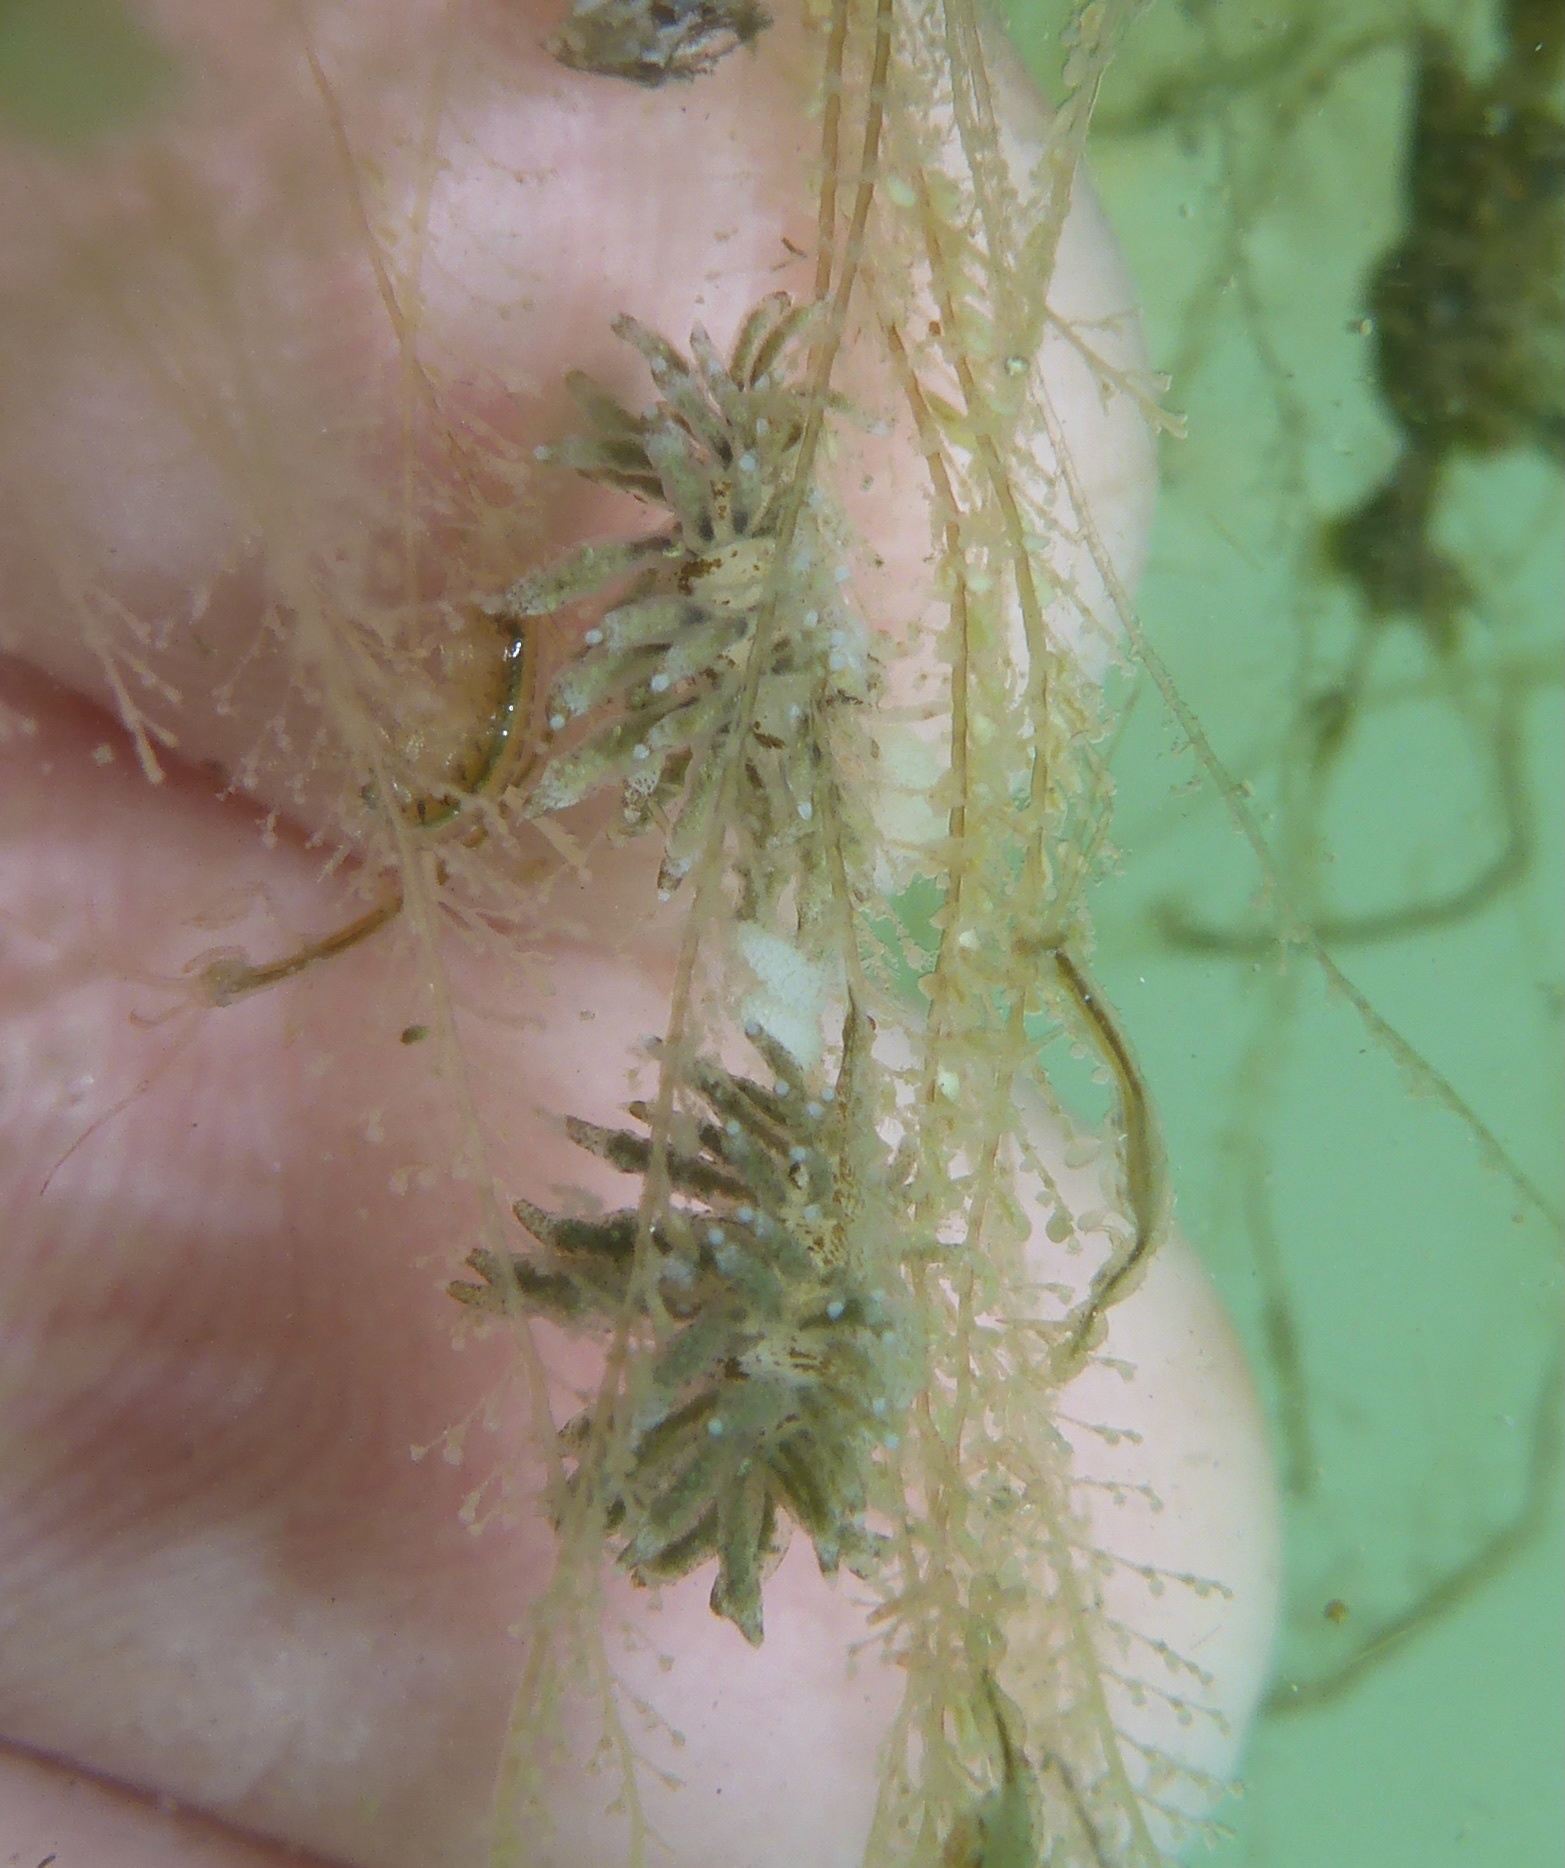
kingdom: Animalia
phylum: Mollusca
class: Gastropoda
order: Nudibranchia
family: Eubranchidae
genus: Eubranchus
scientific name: Eubranchus rustyus
